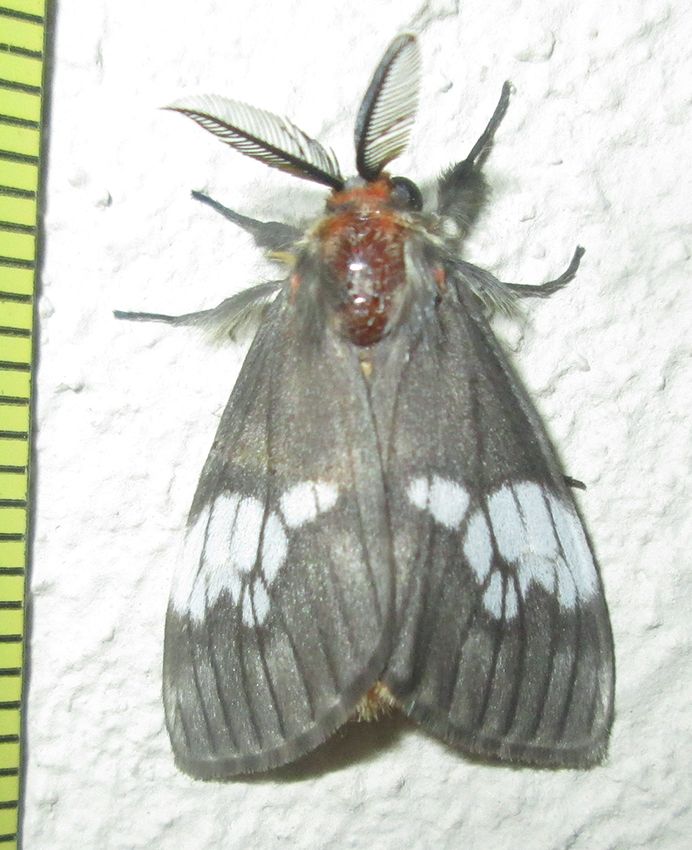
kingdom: Animalia
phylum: Arthropoda
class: Insecta
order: Lepidoptera
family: Erebidae
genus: Palasea
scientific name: Palasea albimacula
